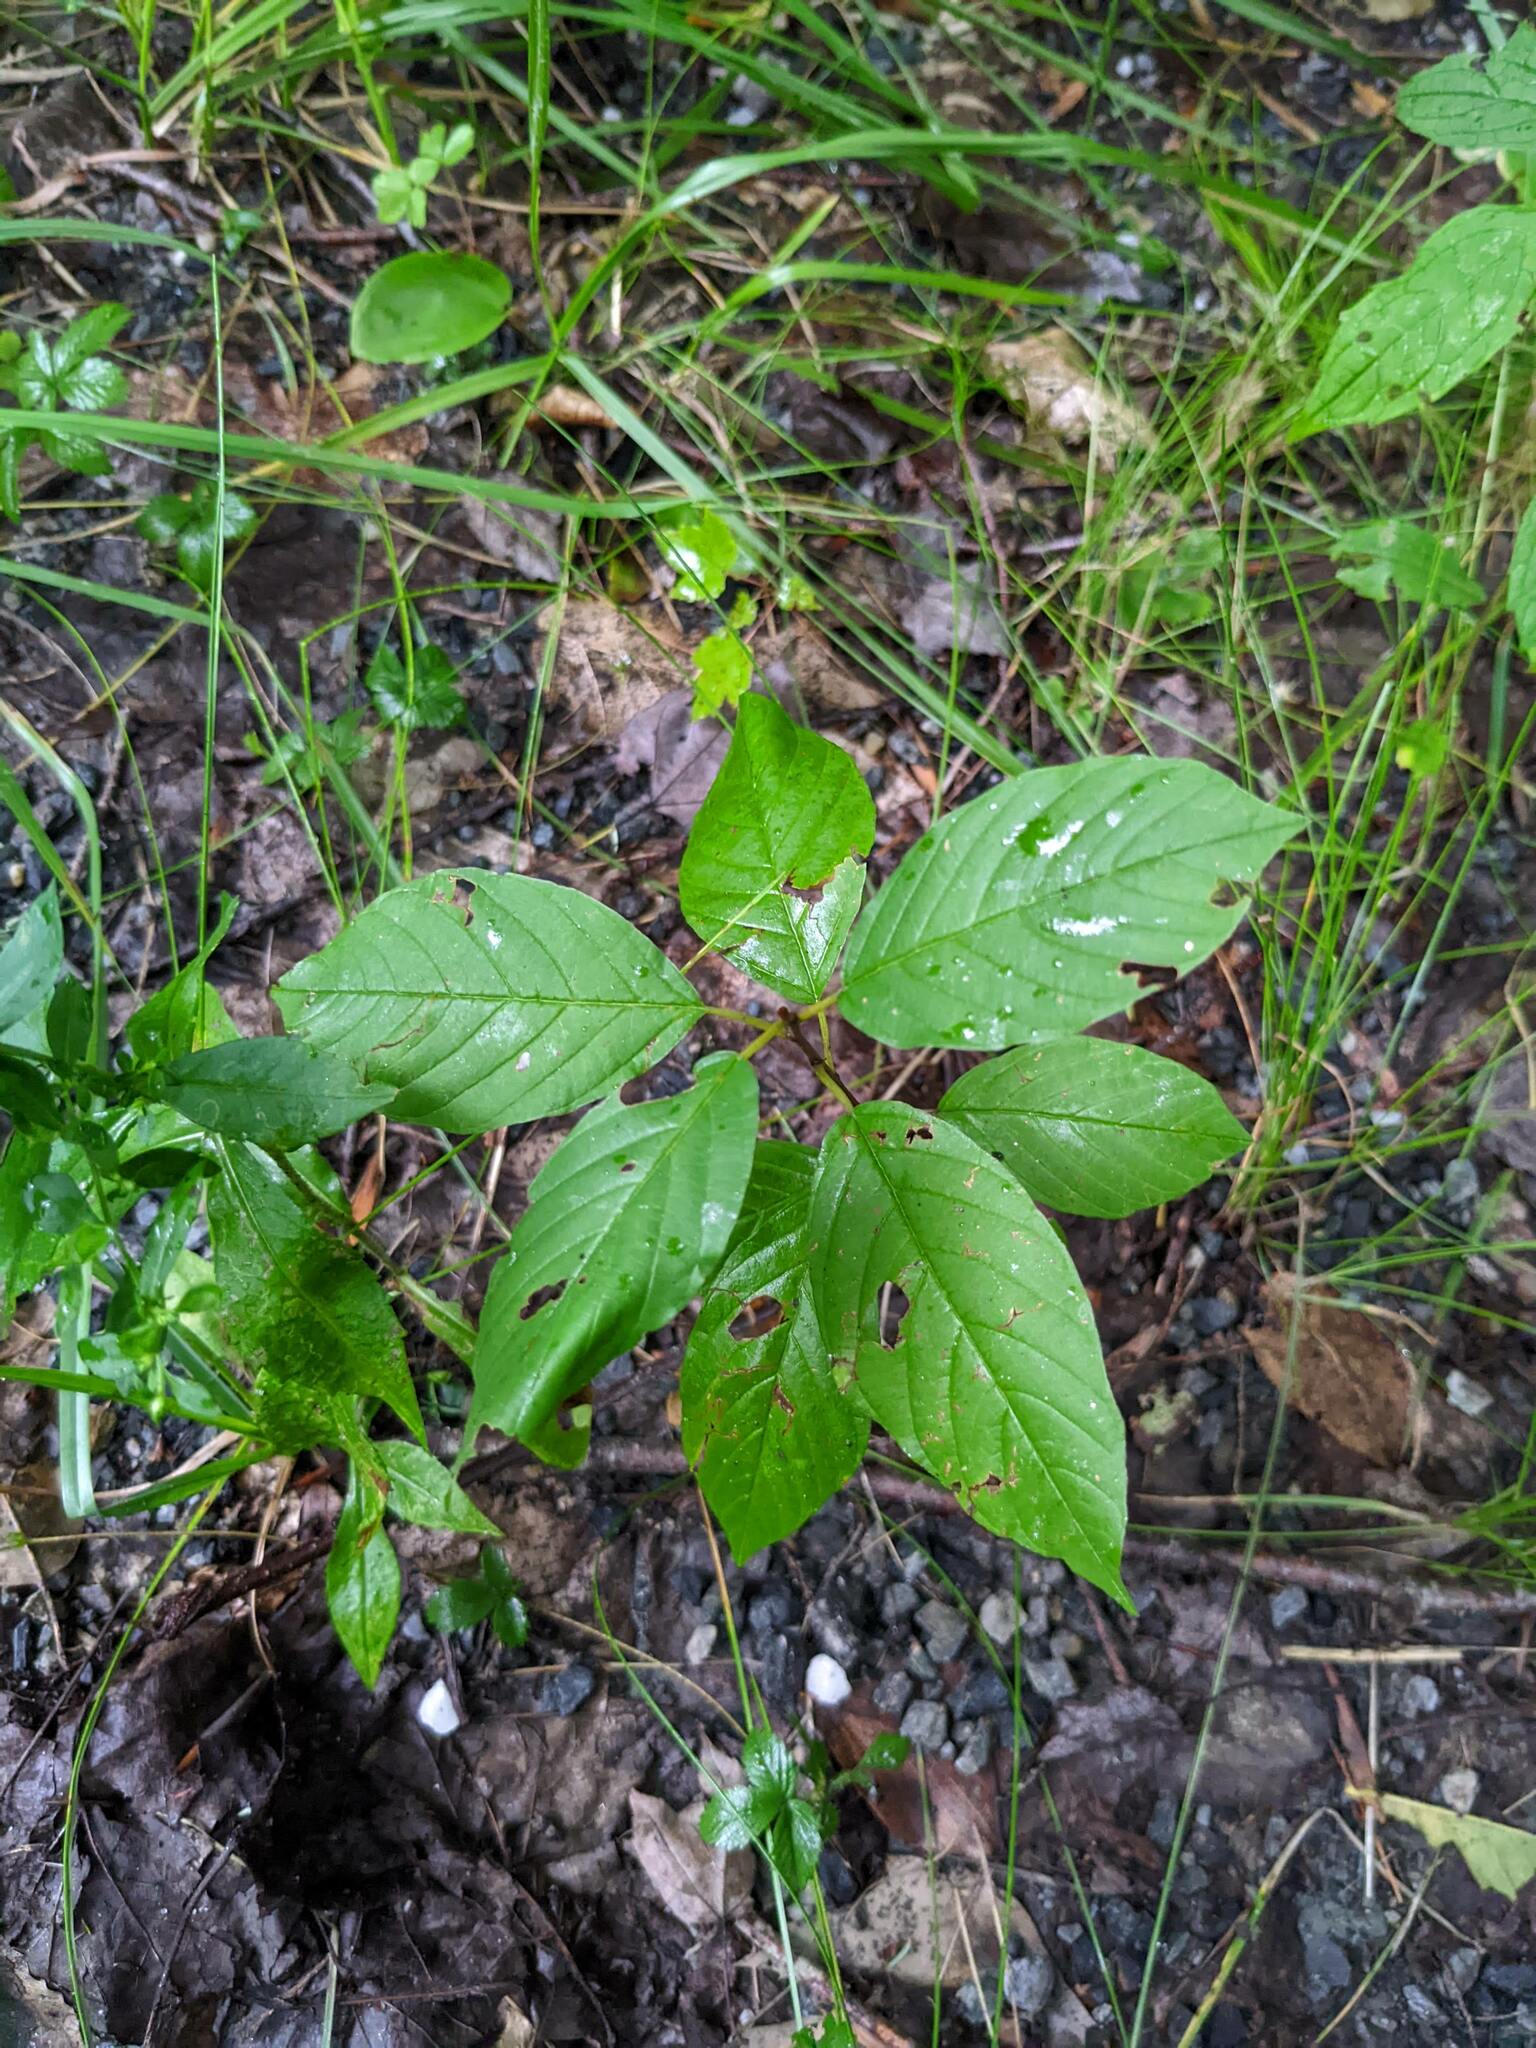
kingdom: Plantae
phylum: Tracheophyta
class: Magnoliopsida
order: Rosales
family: Rhamnaceae
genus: Frangula
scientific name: Frangula alnus
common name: Alder buckthorn
